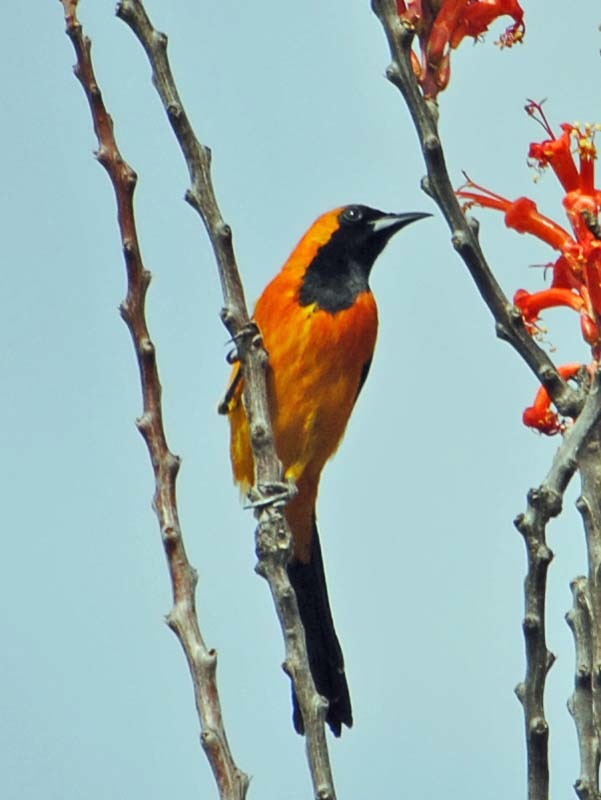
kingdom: Animalia
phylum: Chordata
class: Aves
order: Passeriformes
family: Icteridae
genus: Icterus
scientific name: Icterus cucullatus
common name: Hooded oriole
